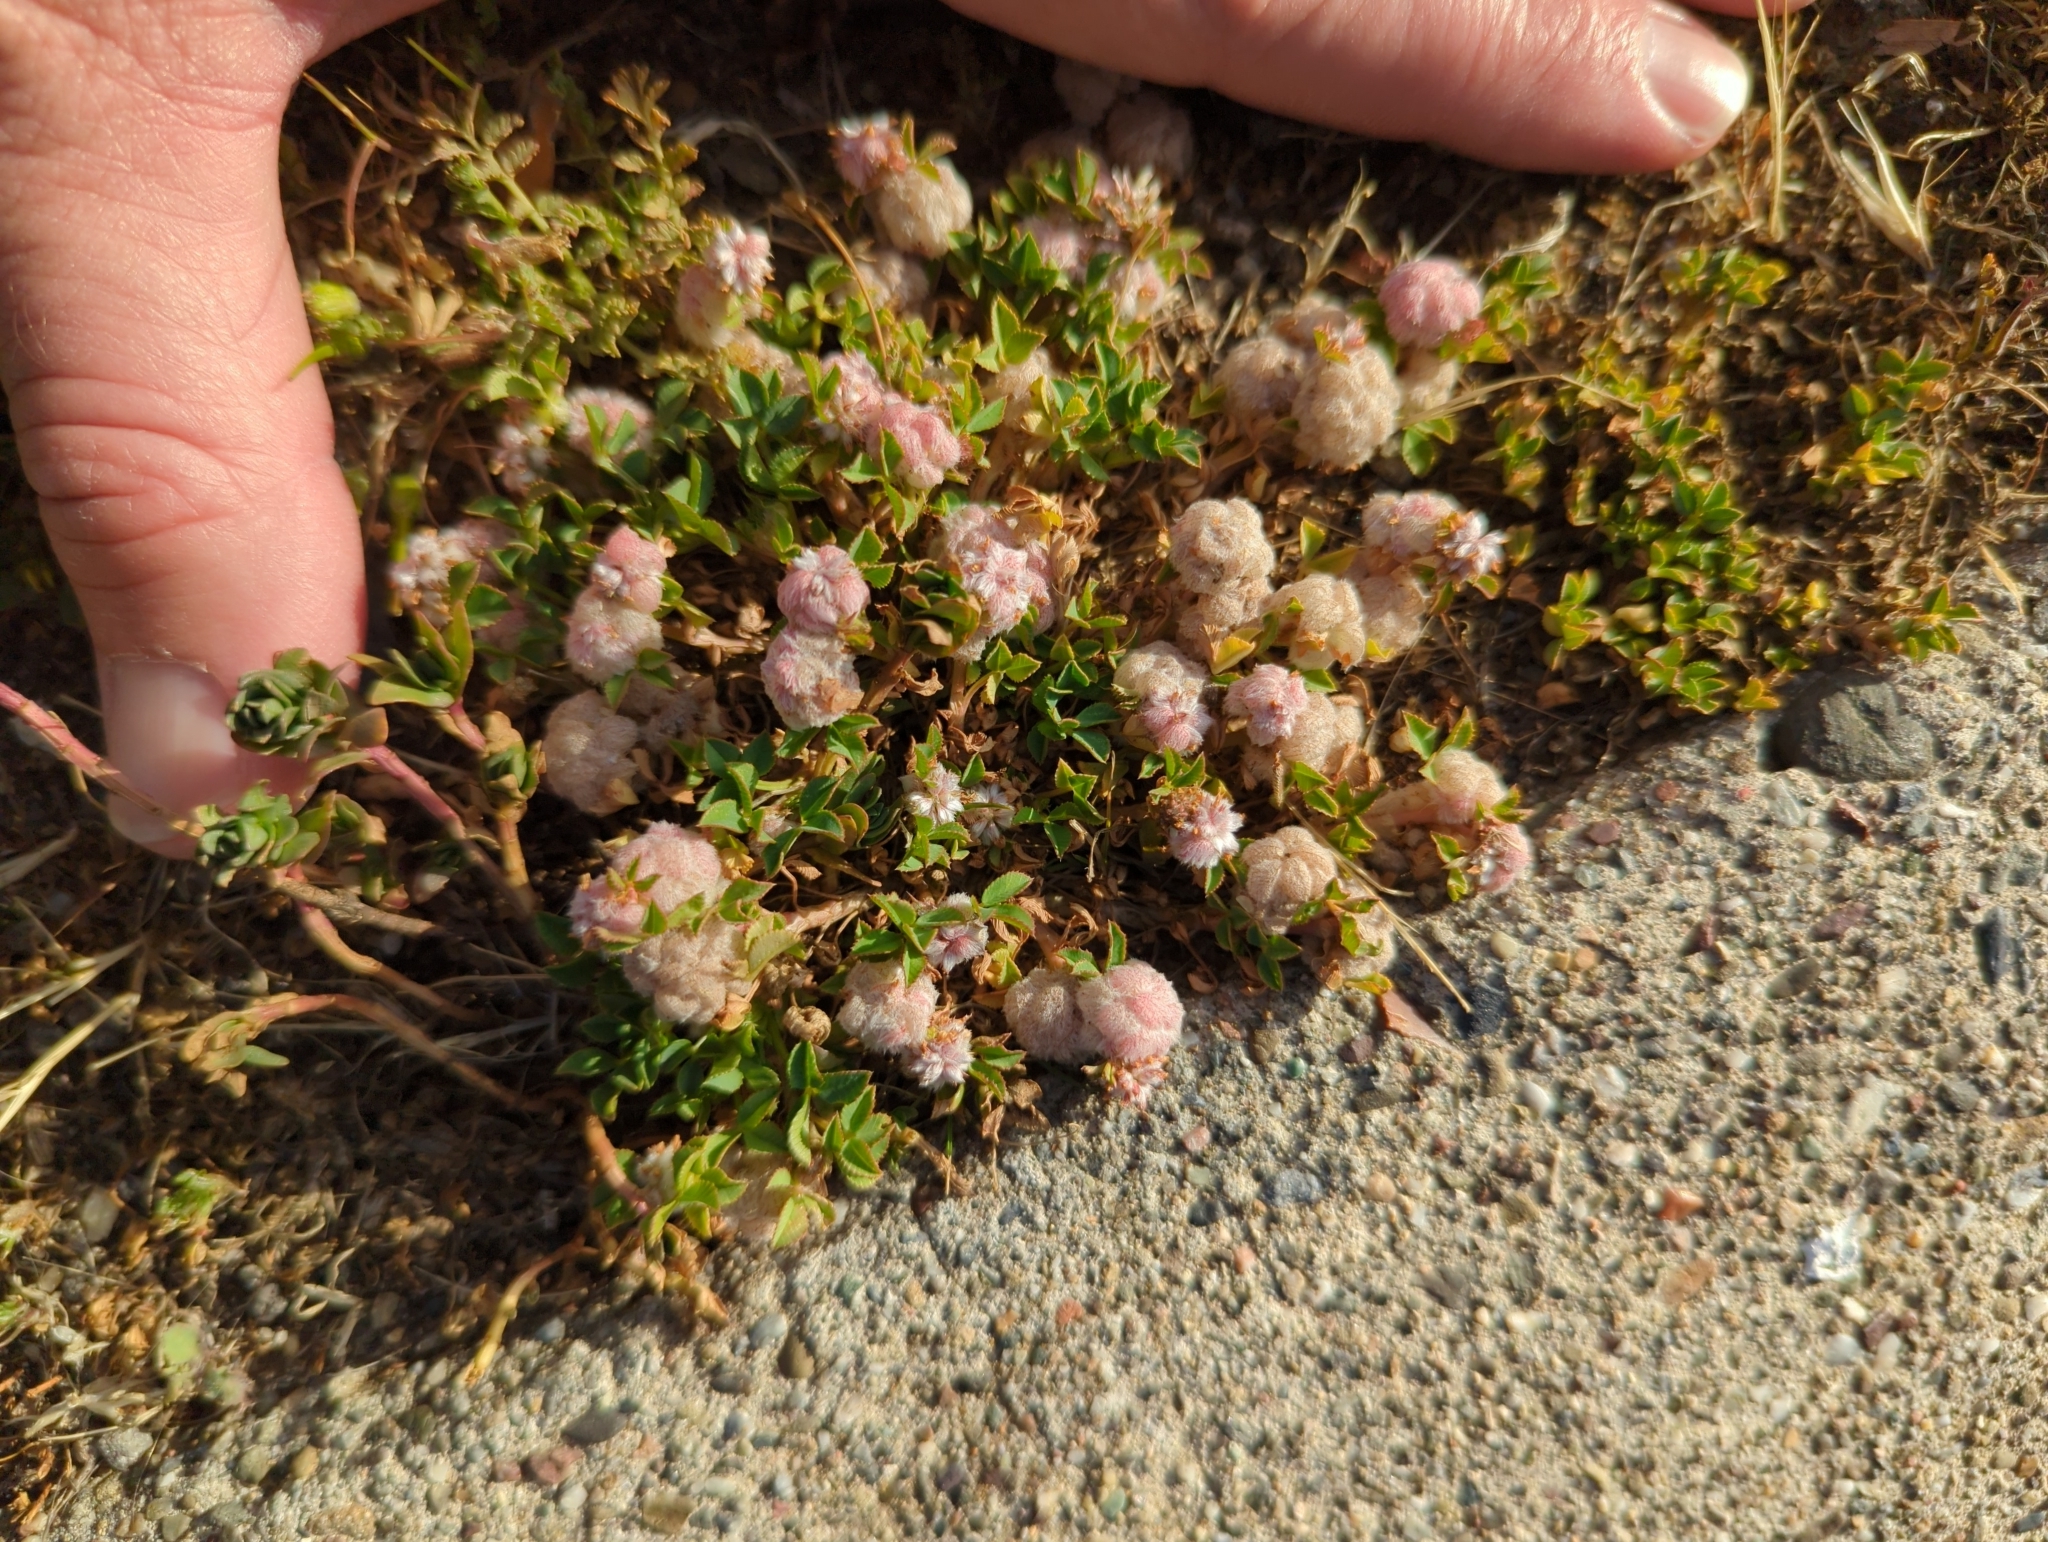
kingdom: Plantae
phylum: Tracheophyta
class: Magnoliopsida
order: Fabales
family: Fabaceae
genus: Trifolium
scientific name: Trifolium tomentosum
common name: Woolly clover
